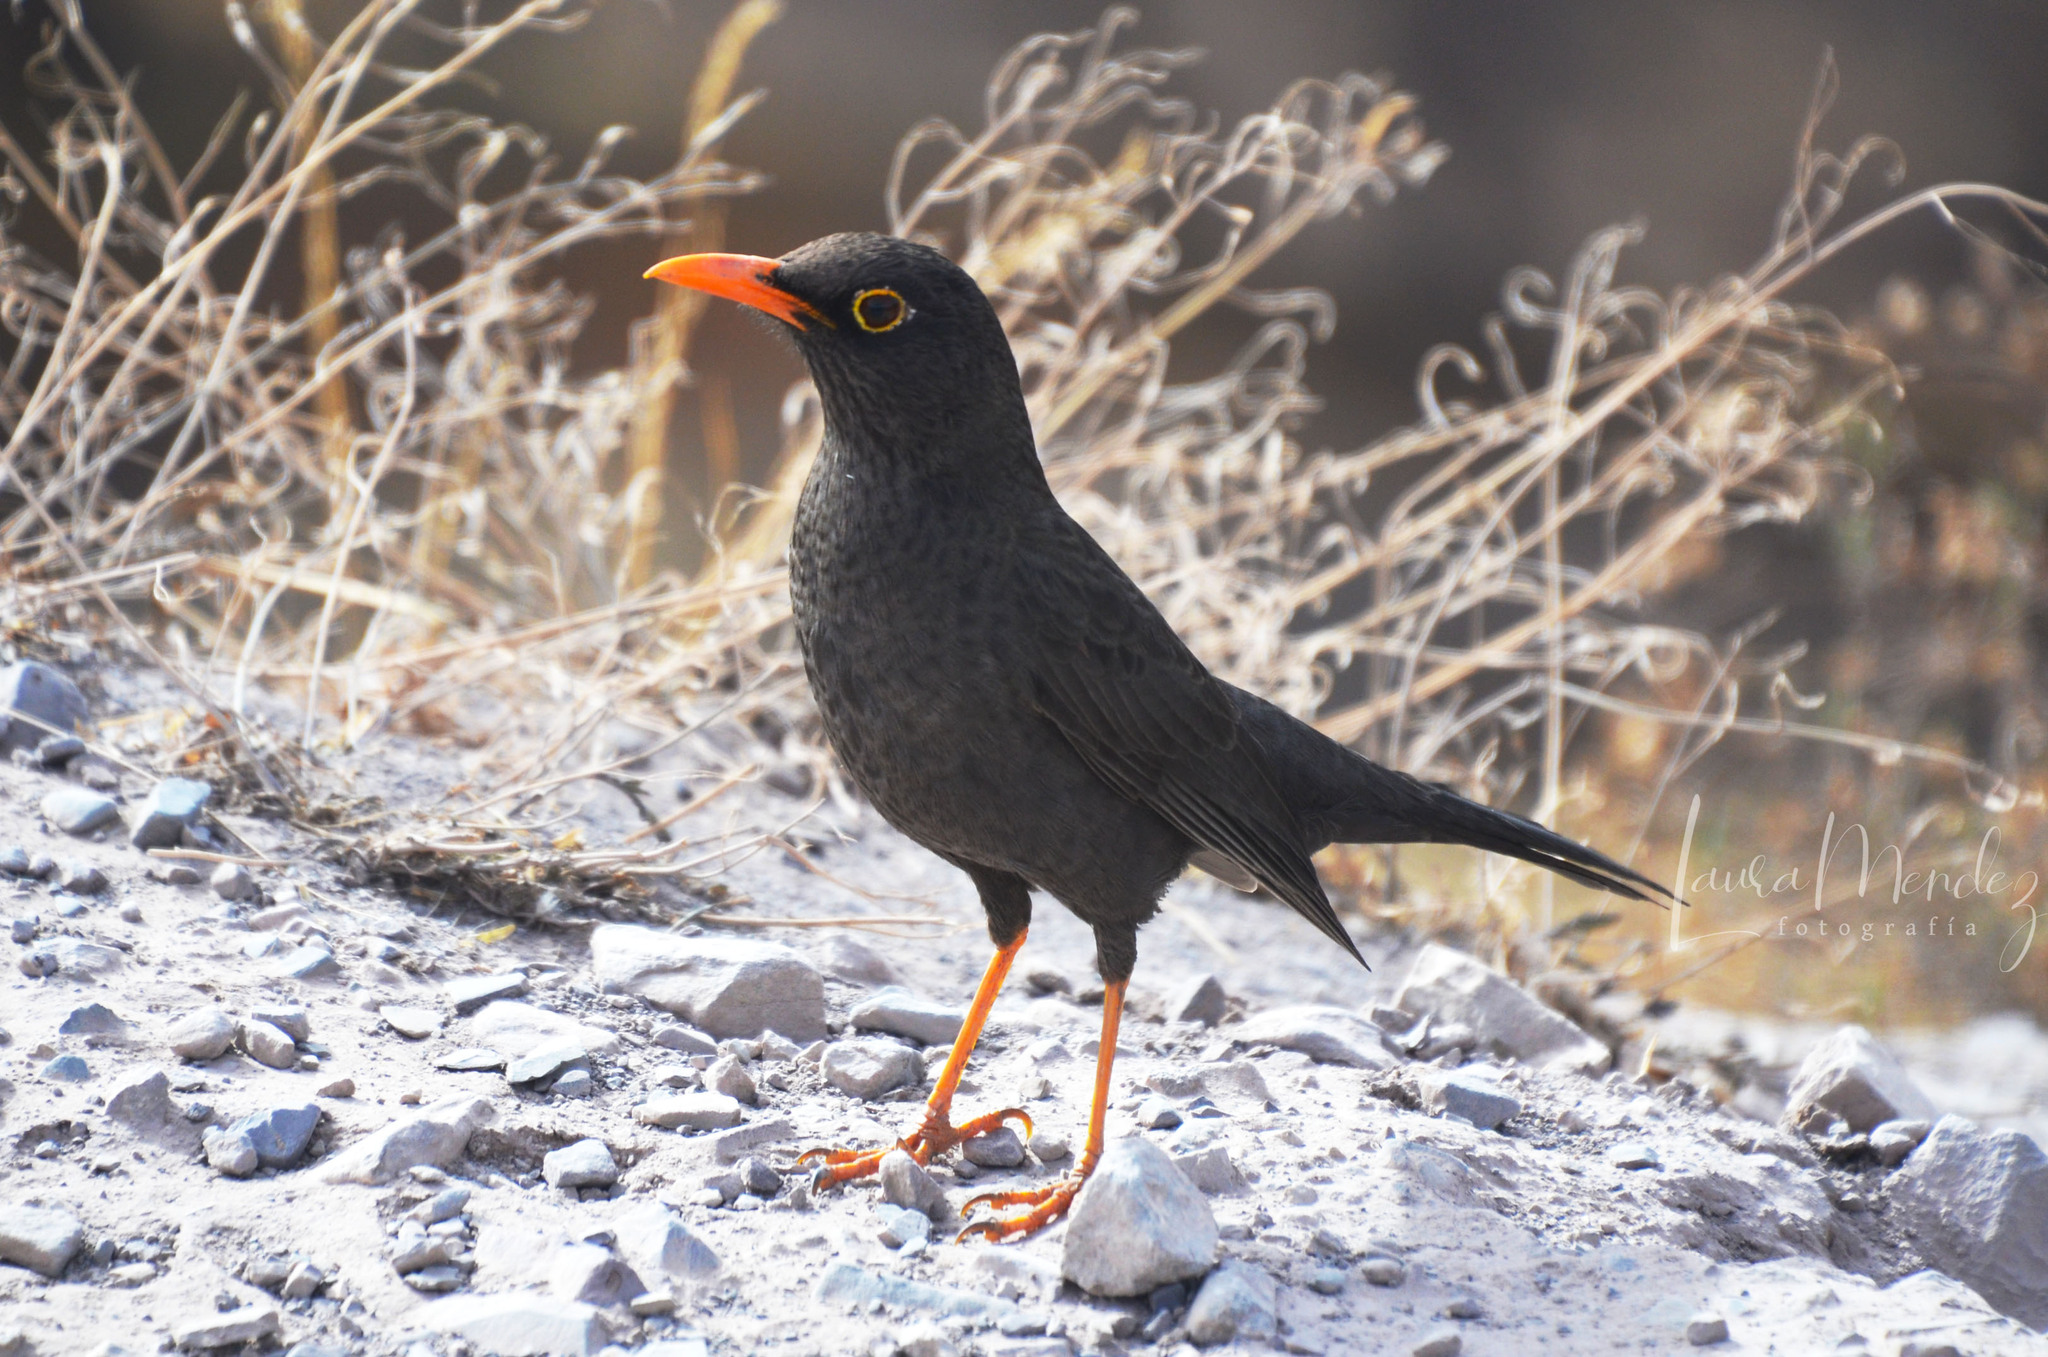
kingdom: Animalia
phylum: Chordata
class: Aves
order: Passeriformes
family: Turdidae
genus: Turdus
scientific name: Turdus chiguanco
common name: Chiguanco thrush
